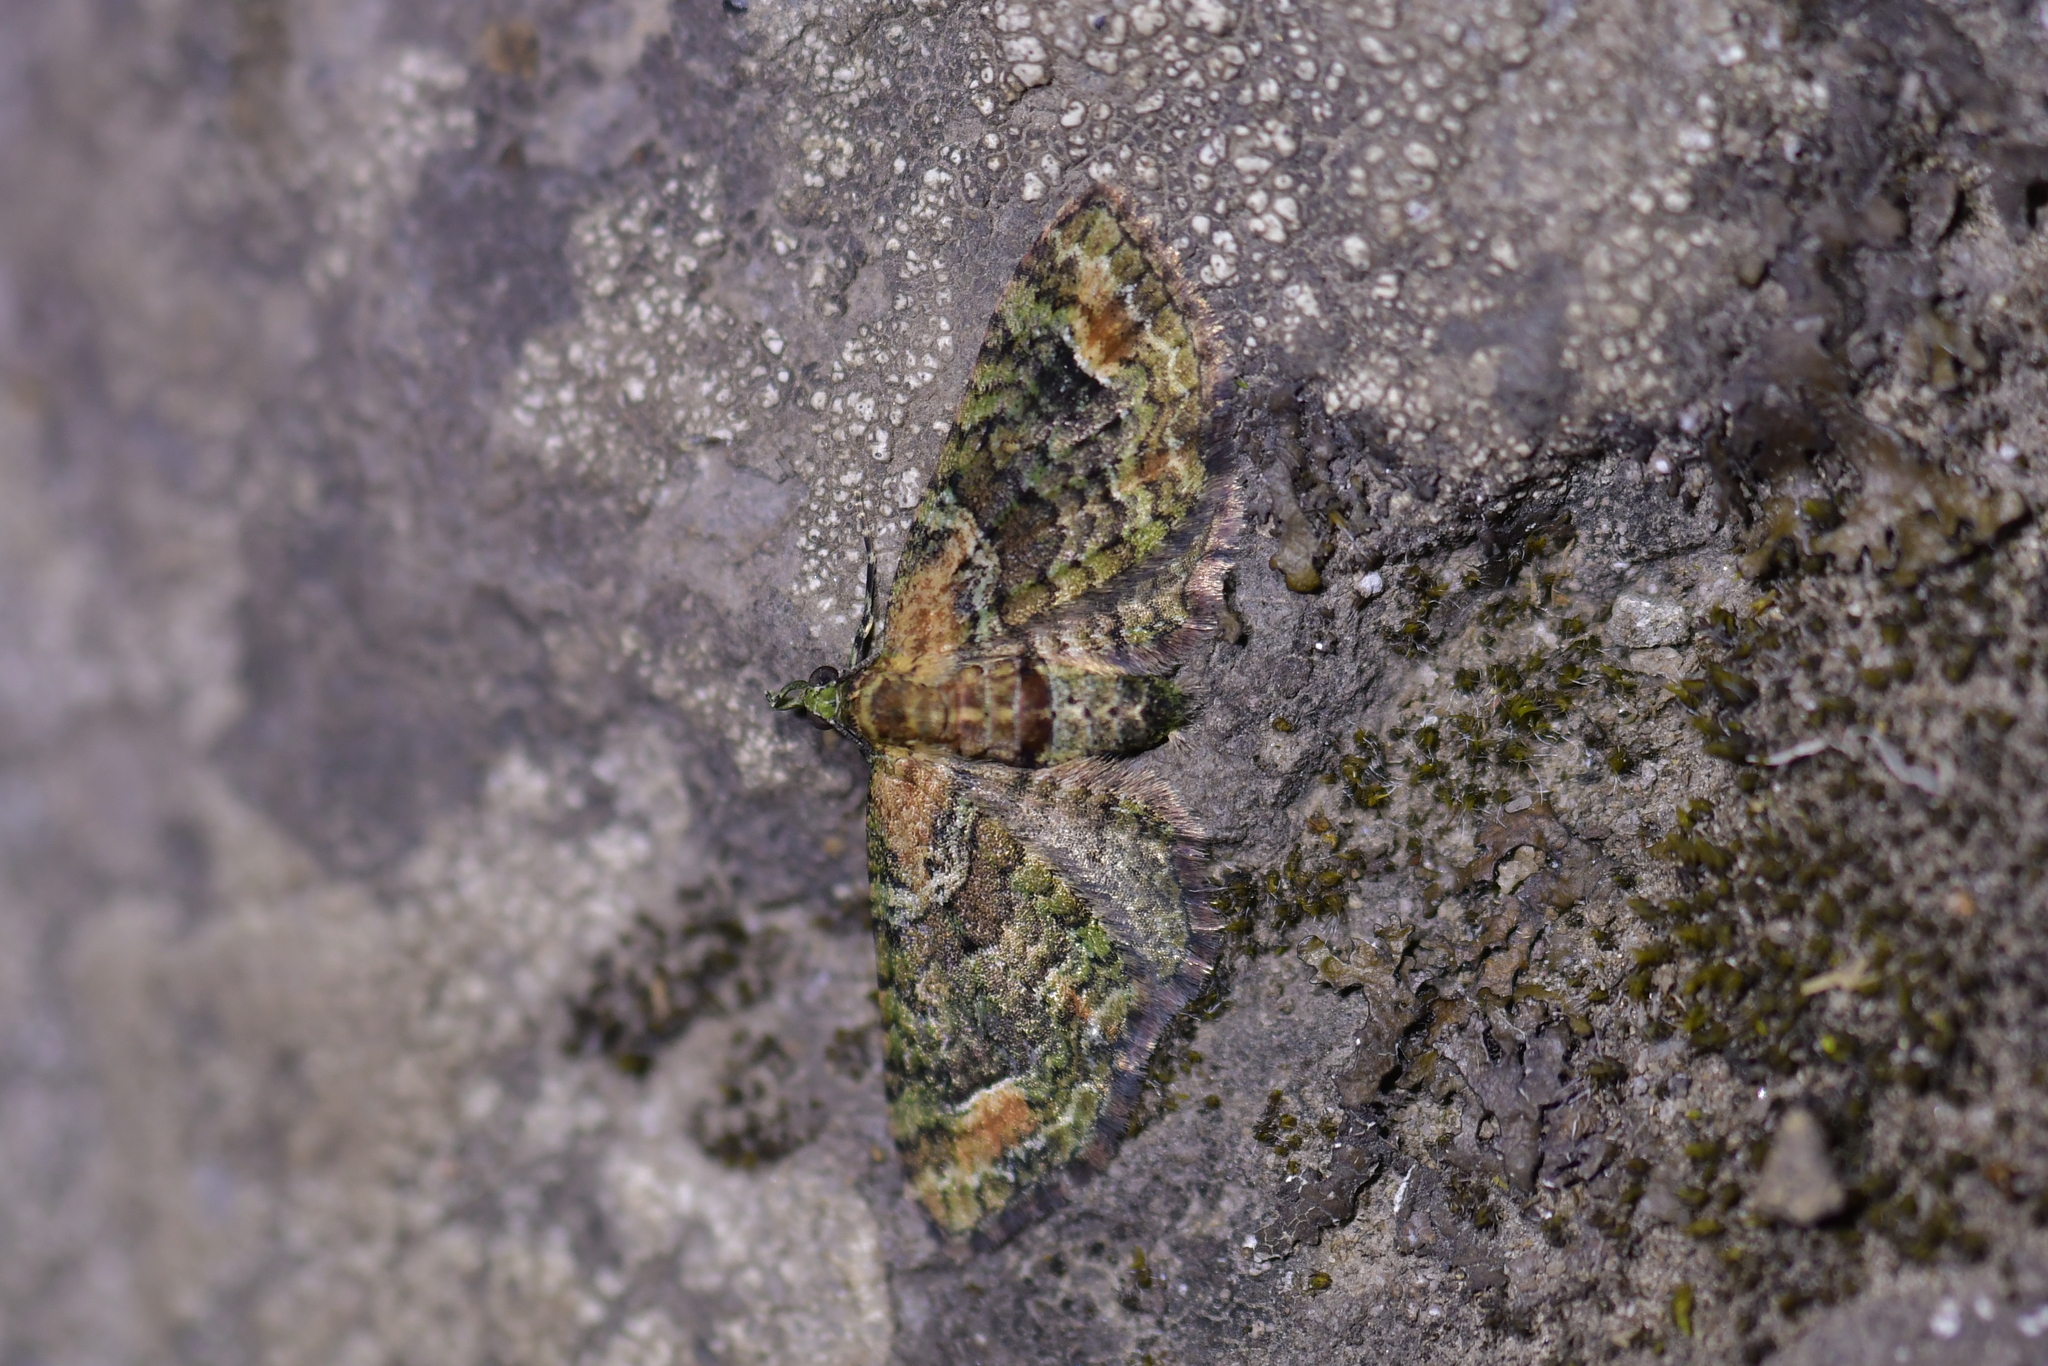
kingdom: Animalia
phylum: Arthropoda
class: Insecta
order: Lepidoptera
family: Geometridae
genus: Idaea
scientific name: Idaea mutanda
